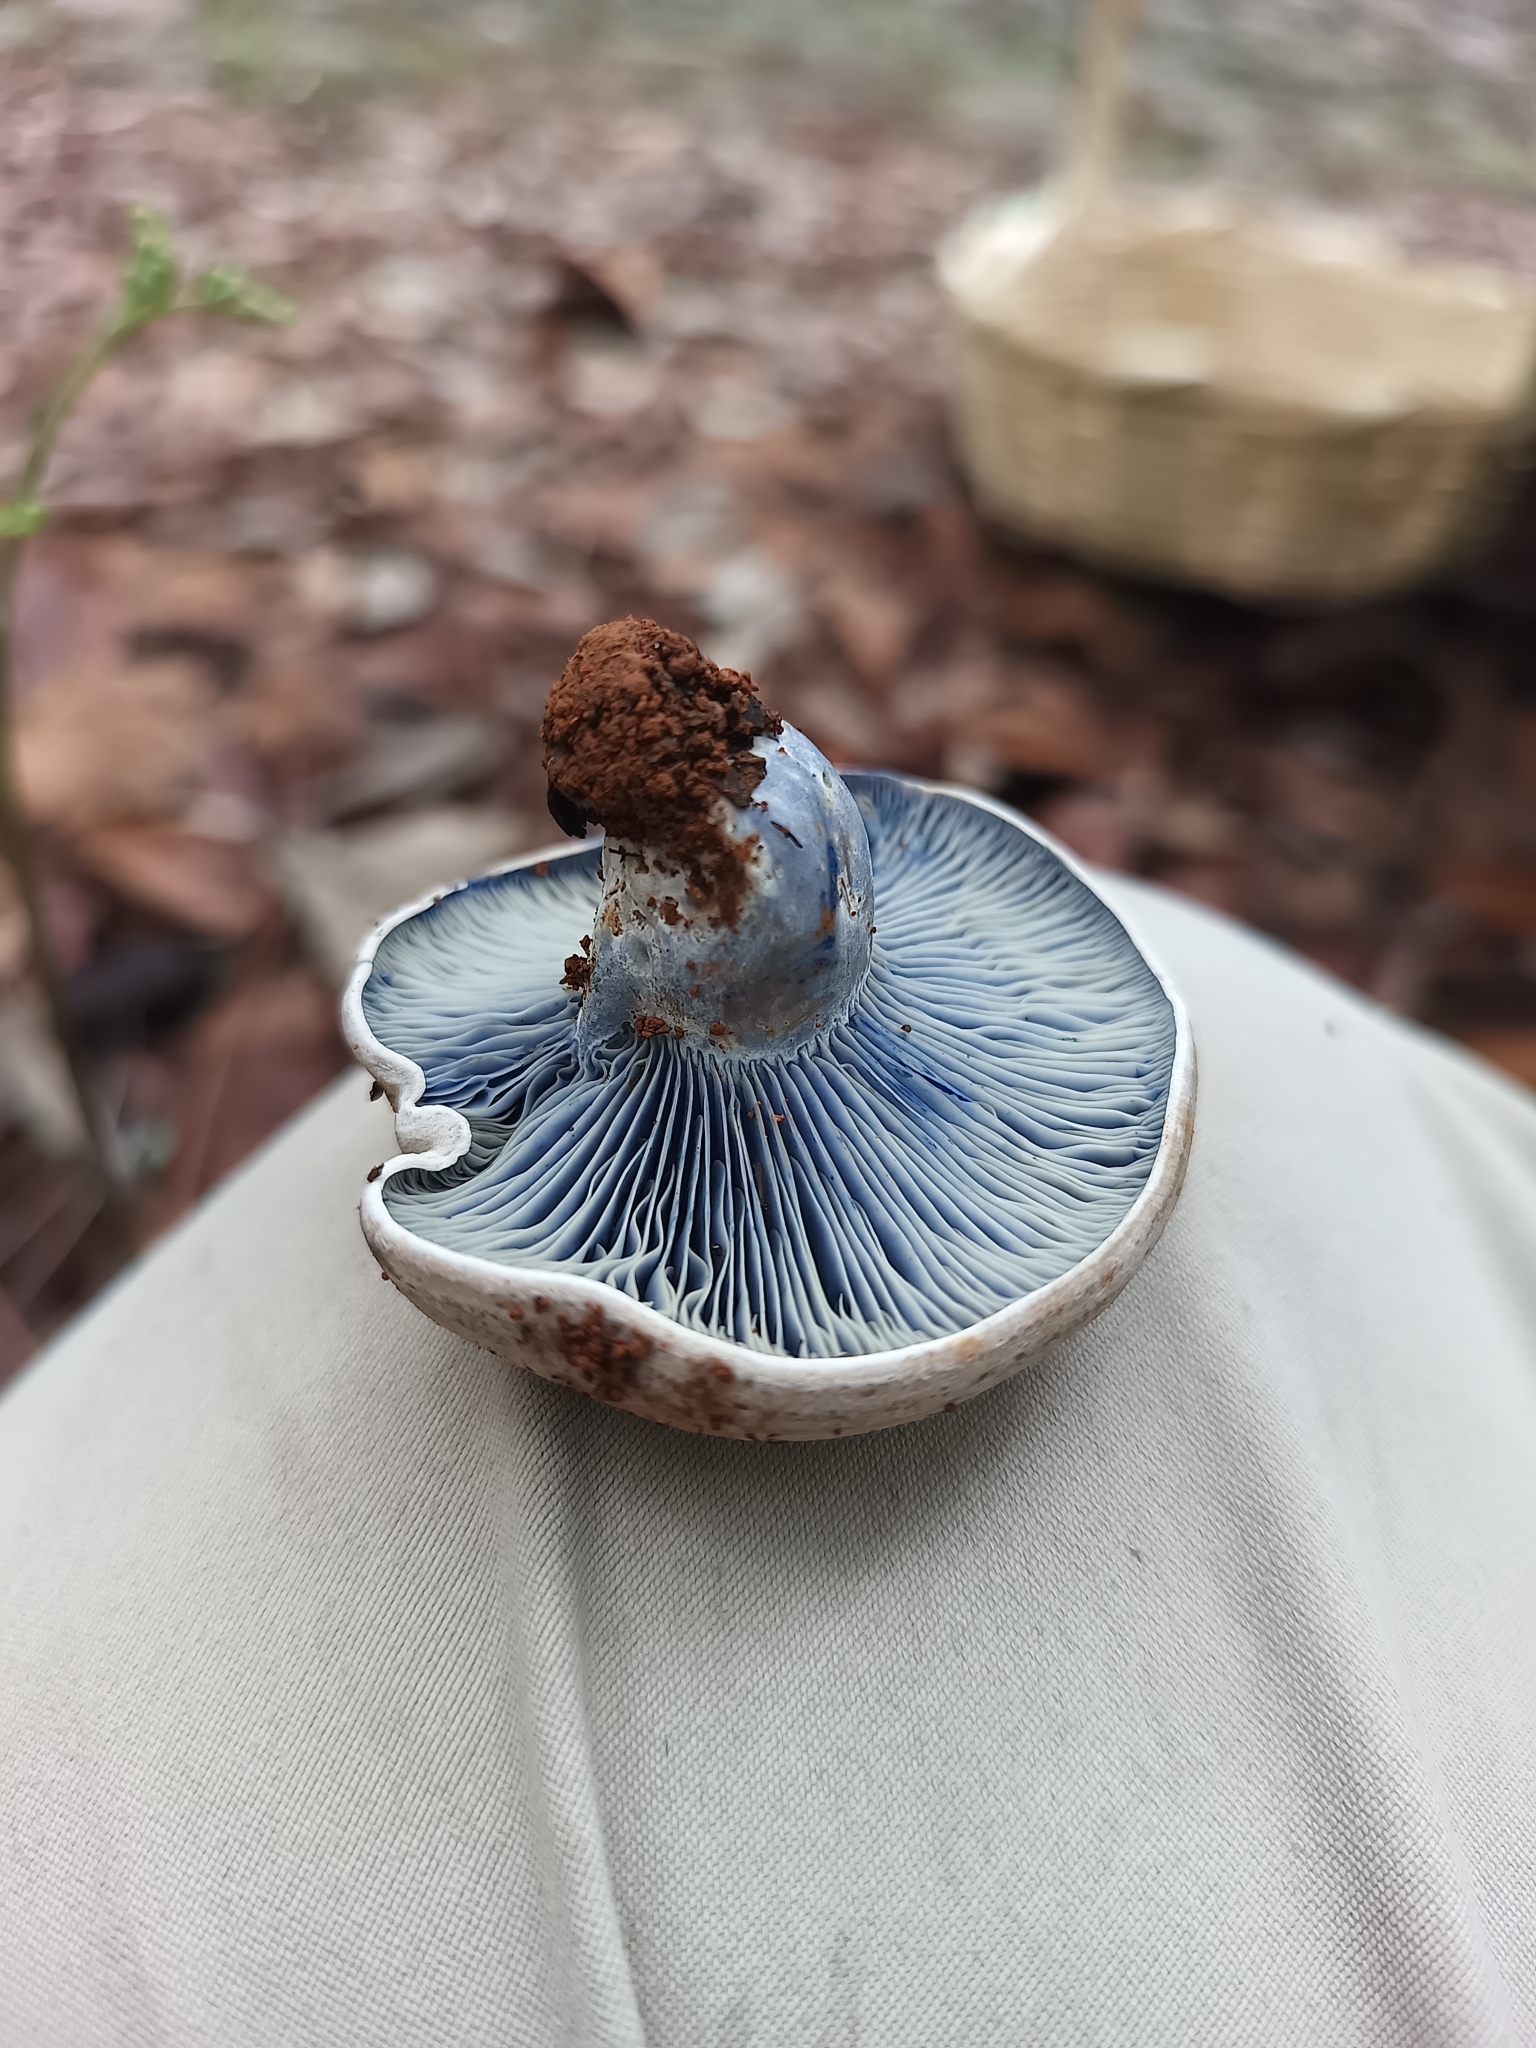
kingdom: Fungi
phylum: Basidiomycota
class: Agaricomycetes
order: Russulales
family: Russulaceae
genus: Lactarius
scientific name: Lactarius indigo
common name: Indigo milk cap
